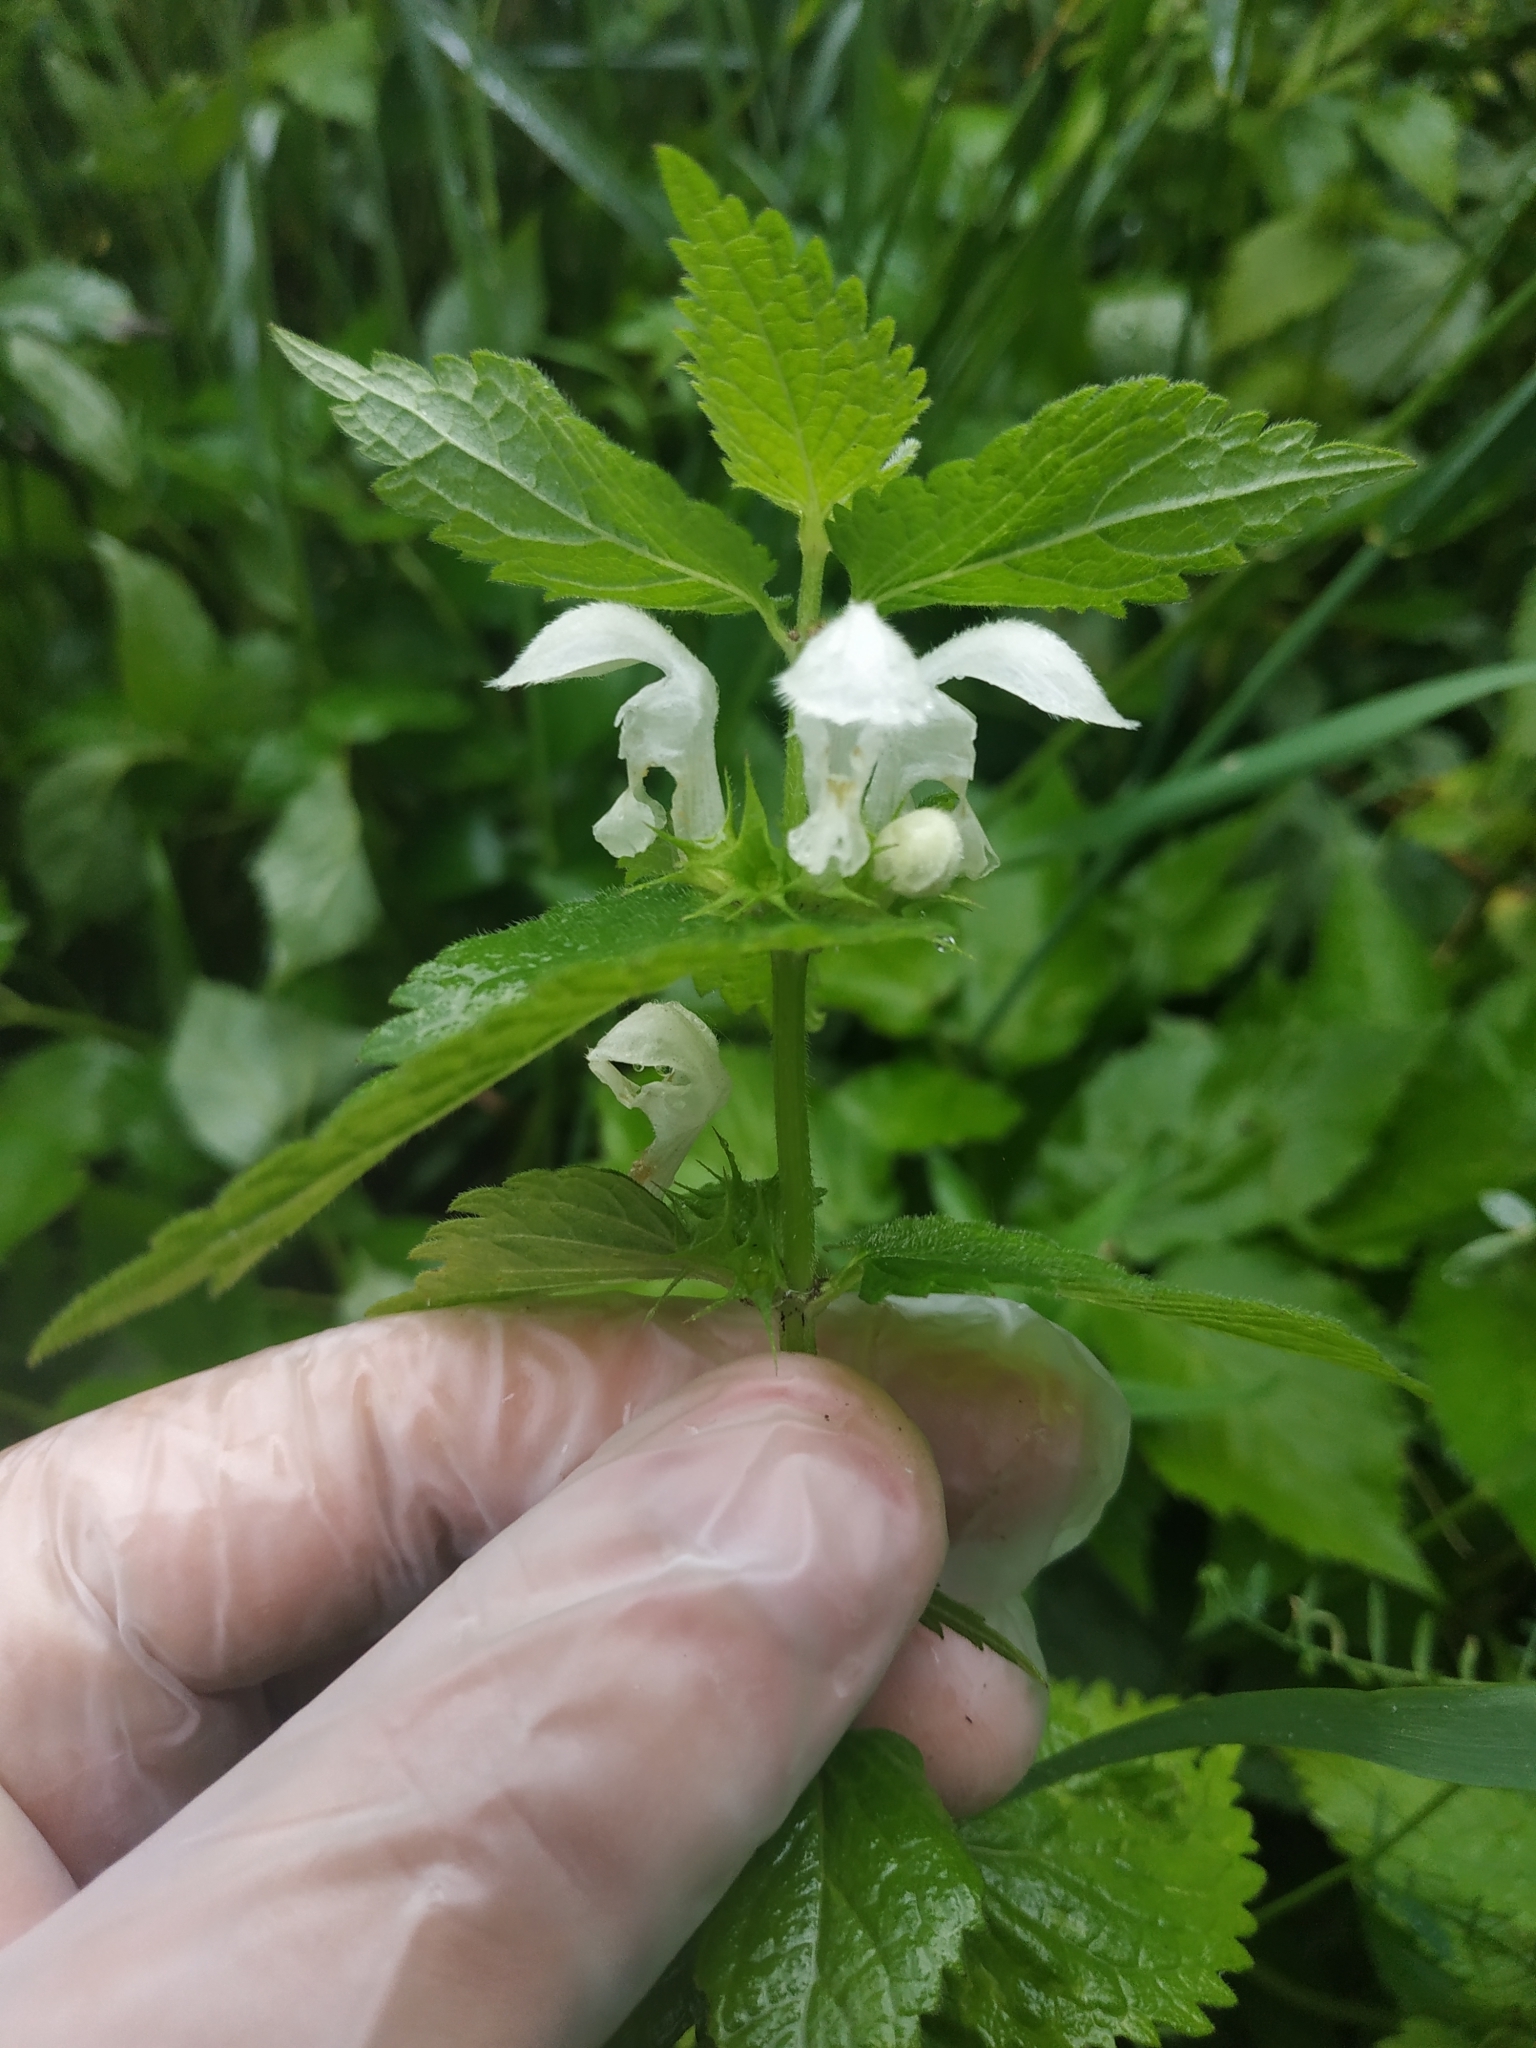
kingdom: Plantae
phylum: Tracheophyta
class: Magnoliopsida
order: Lamiales
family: Lamiaceae
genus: Lamium
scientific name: Lamium album
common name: White dead-nettle
